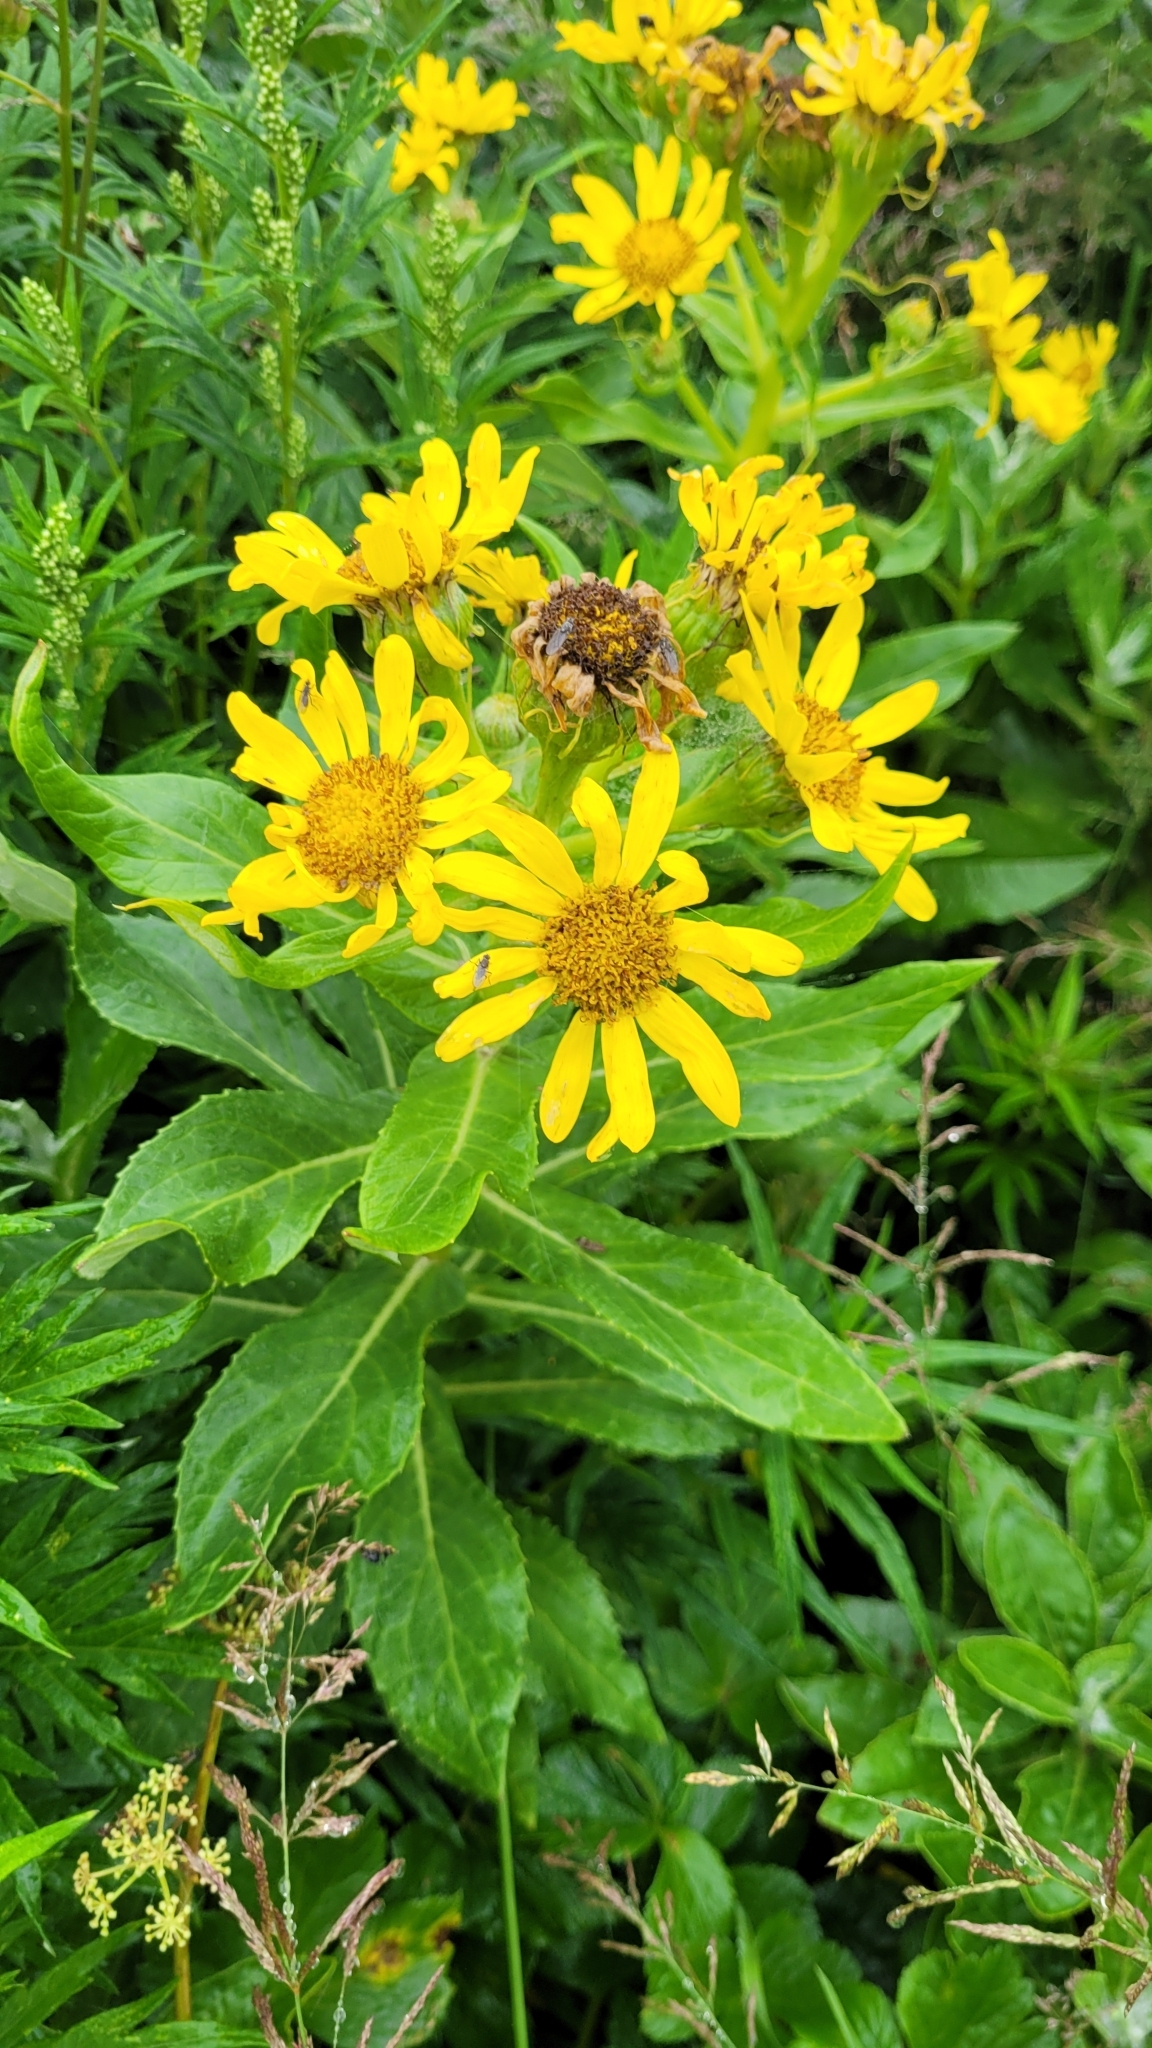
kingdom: Plantae
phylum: Tracheophyta
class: Magnoliopsida
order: Asterales
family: Asteraceae
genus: Jacobaea
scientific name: Jacobaea pseudoarnica
